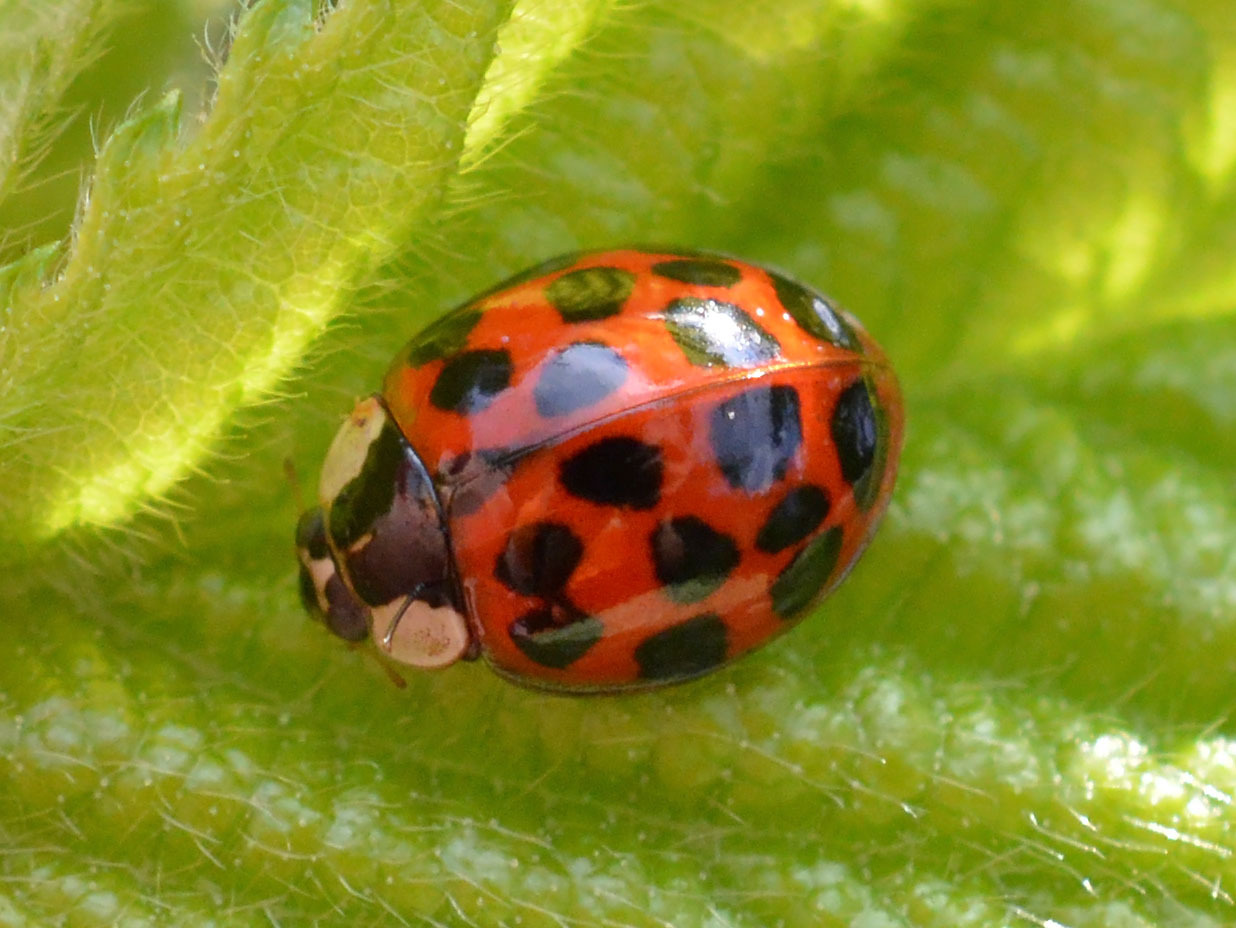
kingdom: Animalia
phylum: Arthropoda
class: Insecta
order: Coleoptera
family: Coccinellidae
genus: Harmonia
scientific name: Harmonia axyridis
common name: Harlequin ladybird
